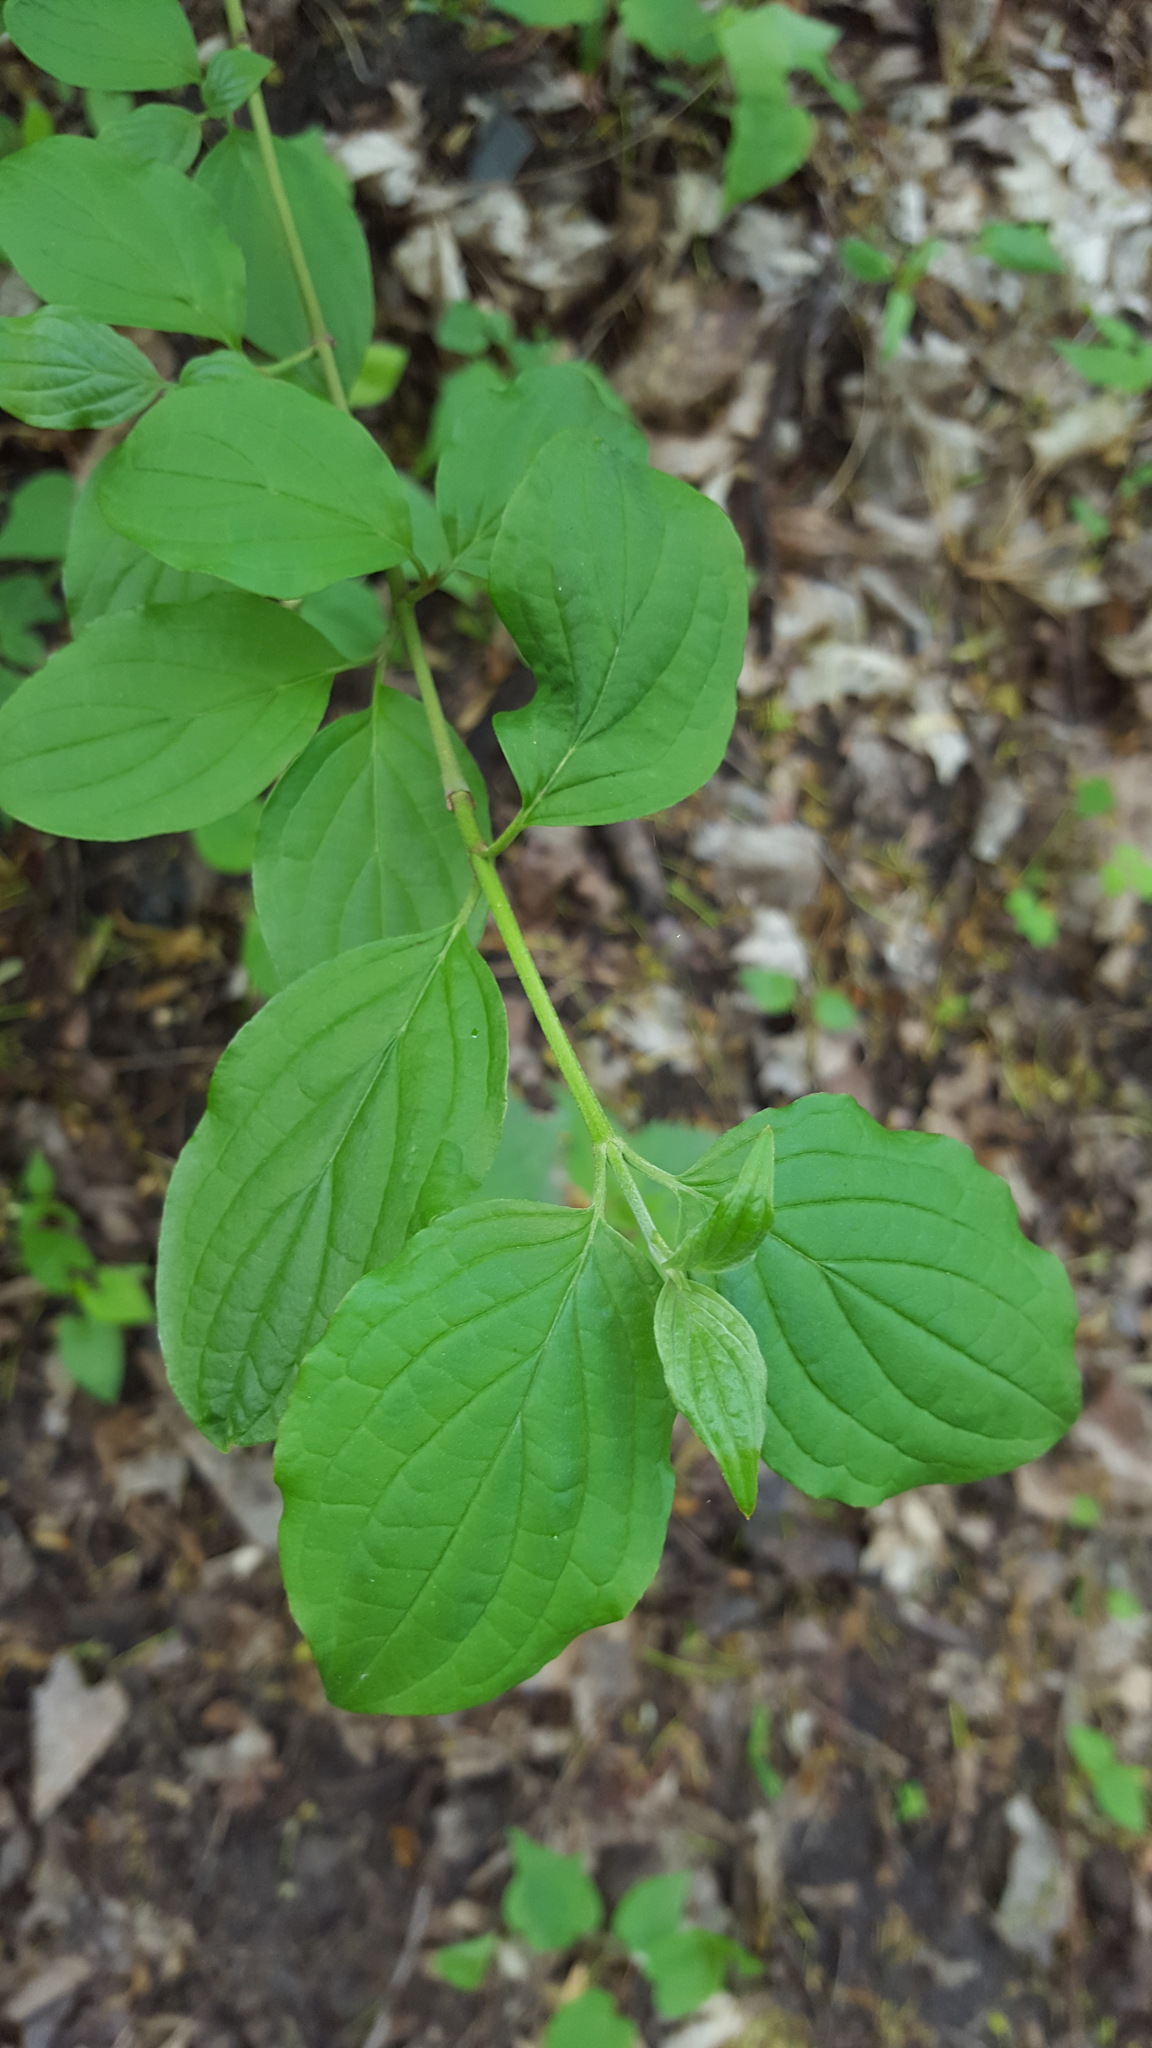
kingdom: Plantae
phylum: Tracheophyta
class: Magnoliopsida
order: Cornales
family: Cornaceae
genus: Cornus
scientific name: Cornus sanguinea
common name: Dogwood
